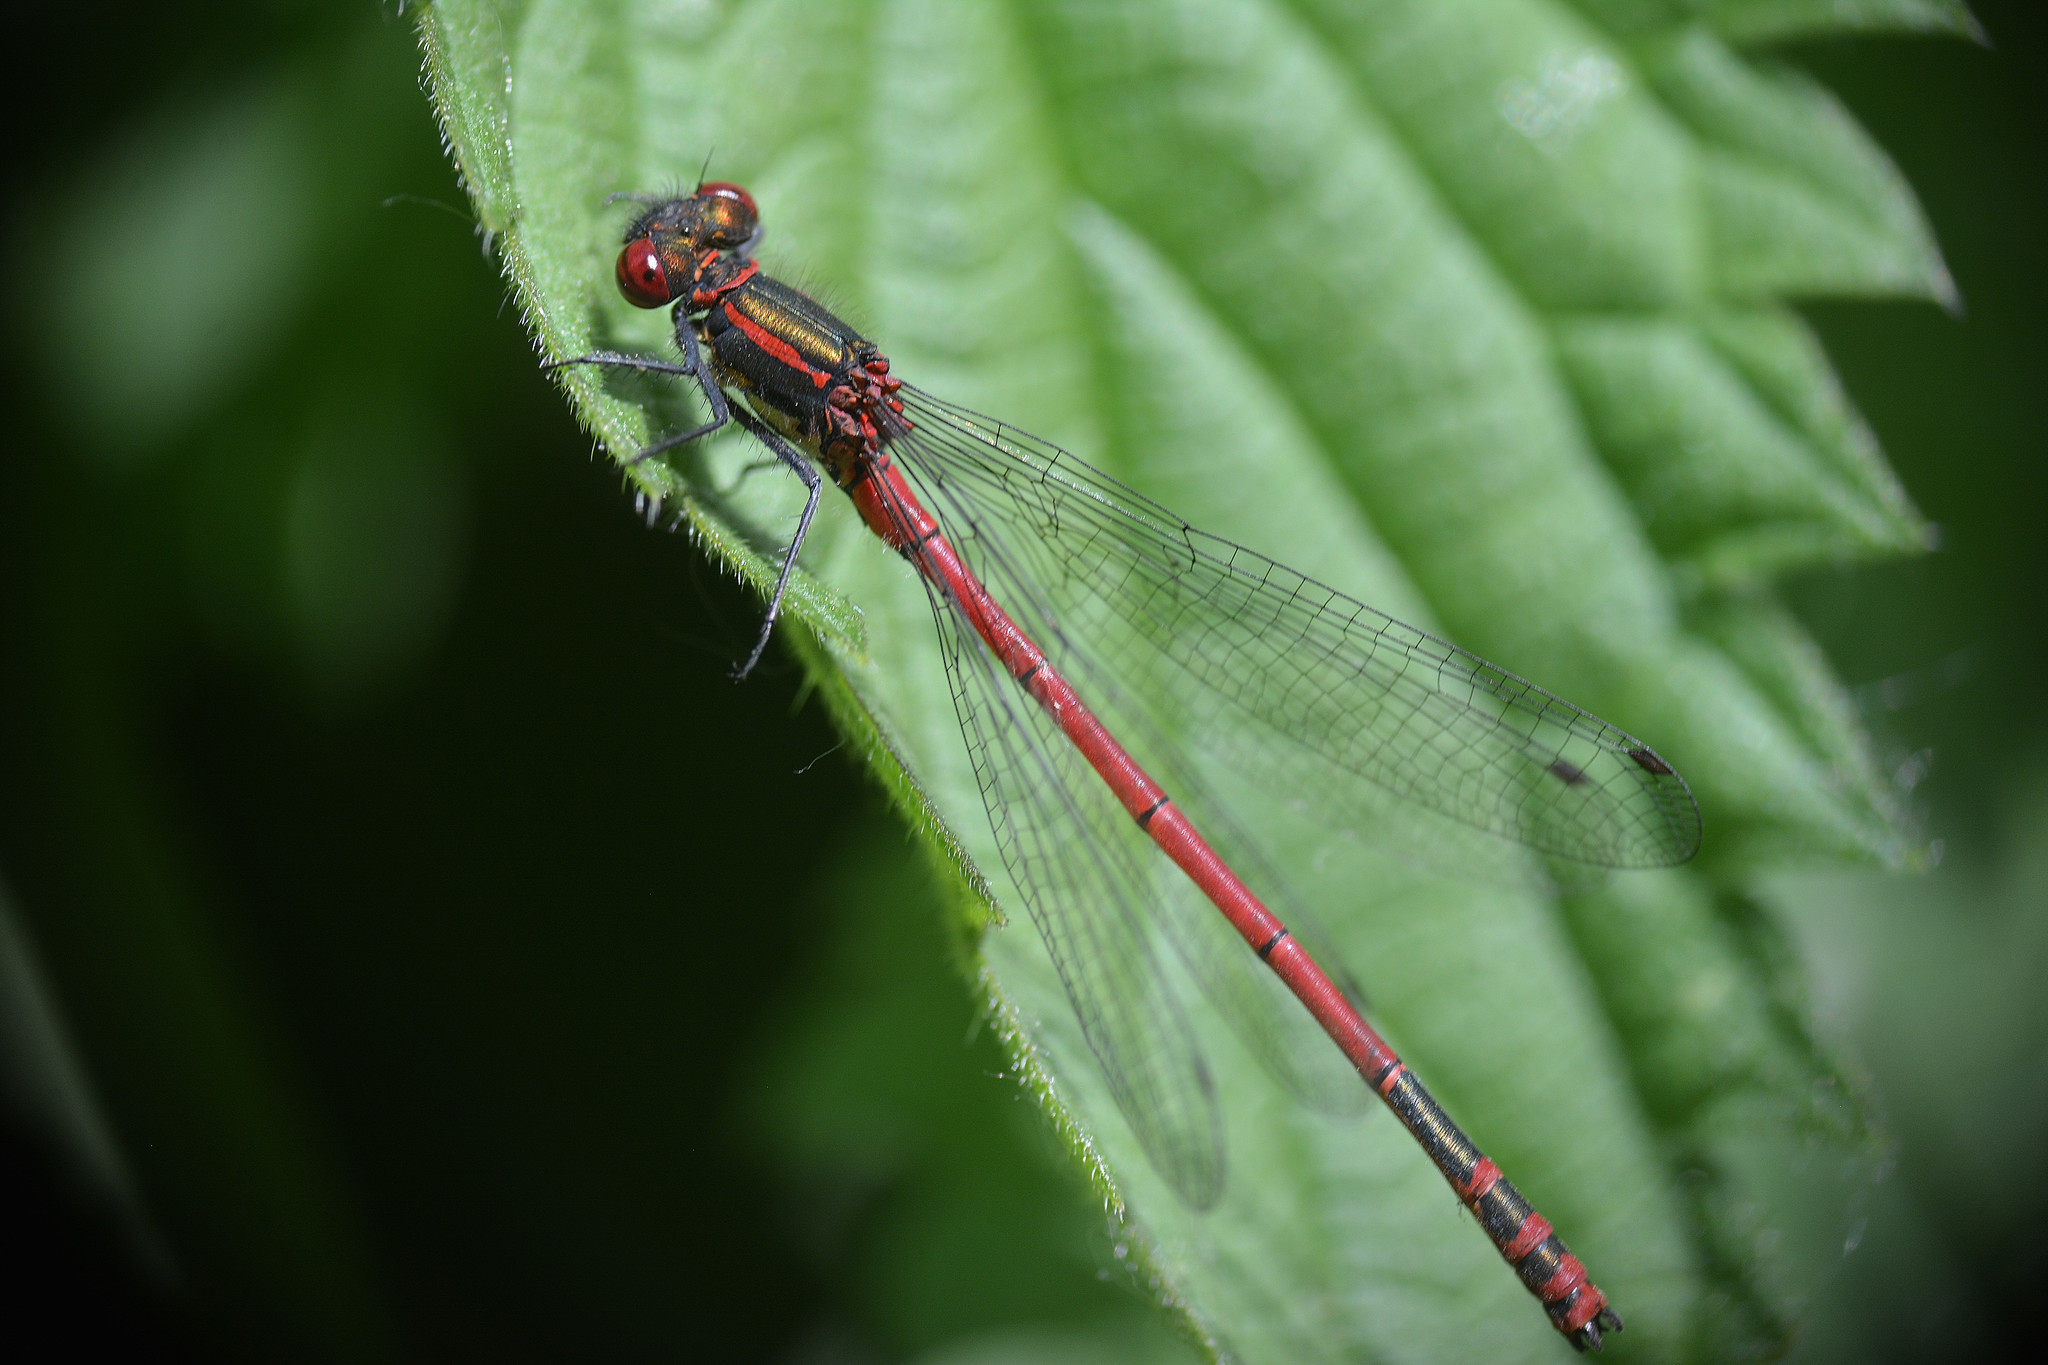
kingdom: Animalia
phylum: Arthropoda
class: Insecta
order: Odonata
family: Coenagrionidae
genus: Pyrrhosoma
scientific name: Pyrrhosoma nymphula
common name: Large red damsel
